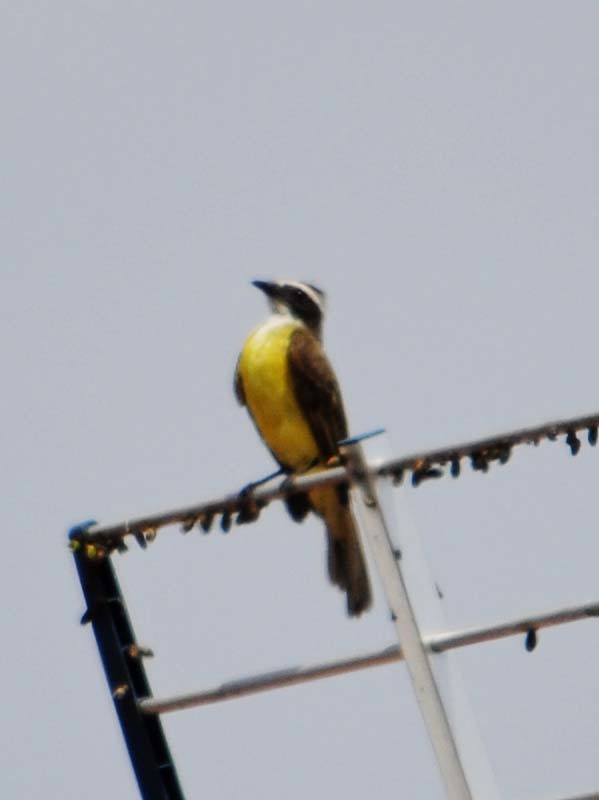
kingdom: Animalia
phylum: Chordata
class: Aves
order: Passeriformes
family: Tyrannidae
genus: Myiozetetes
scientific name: Myiozetetes similis
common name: Social flycatcher
